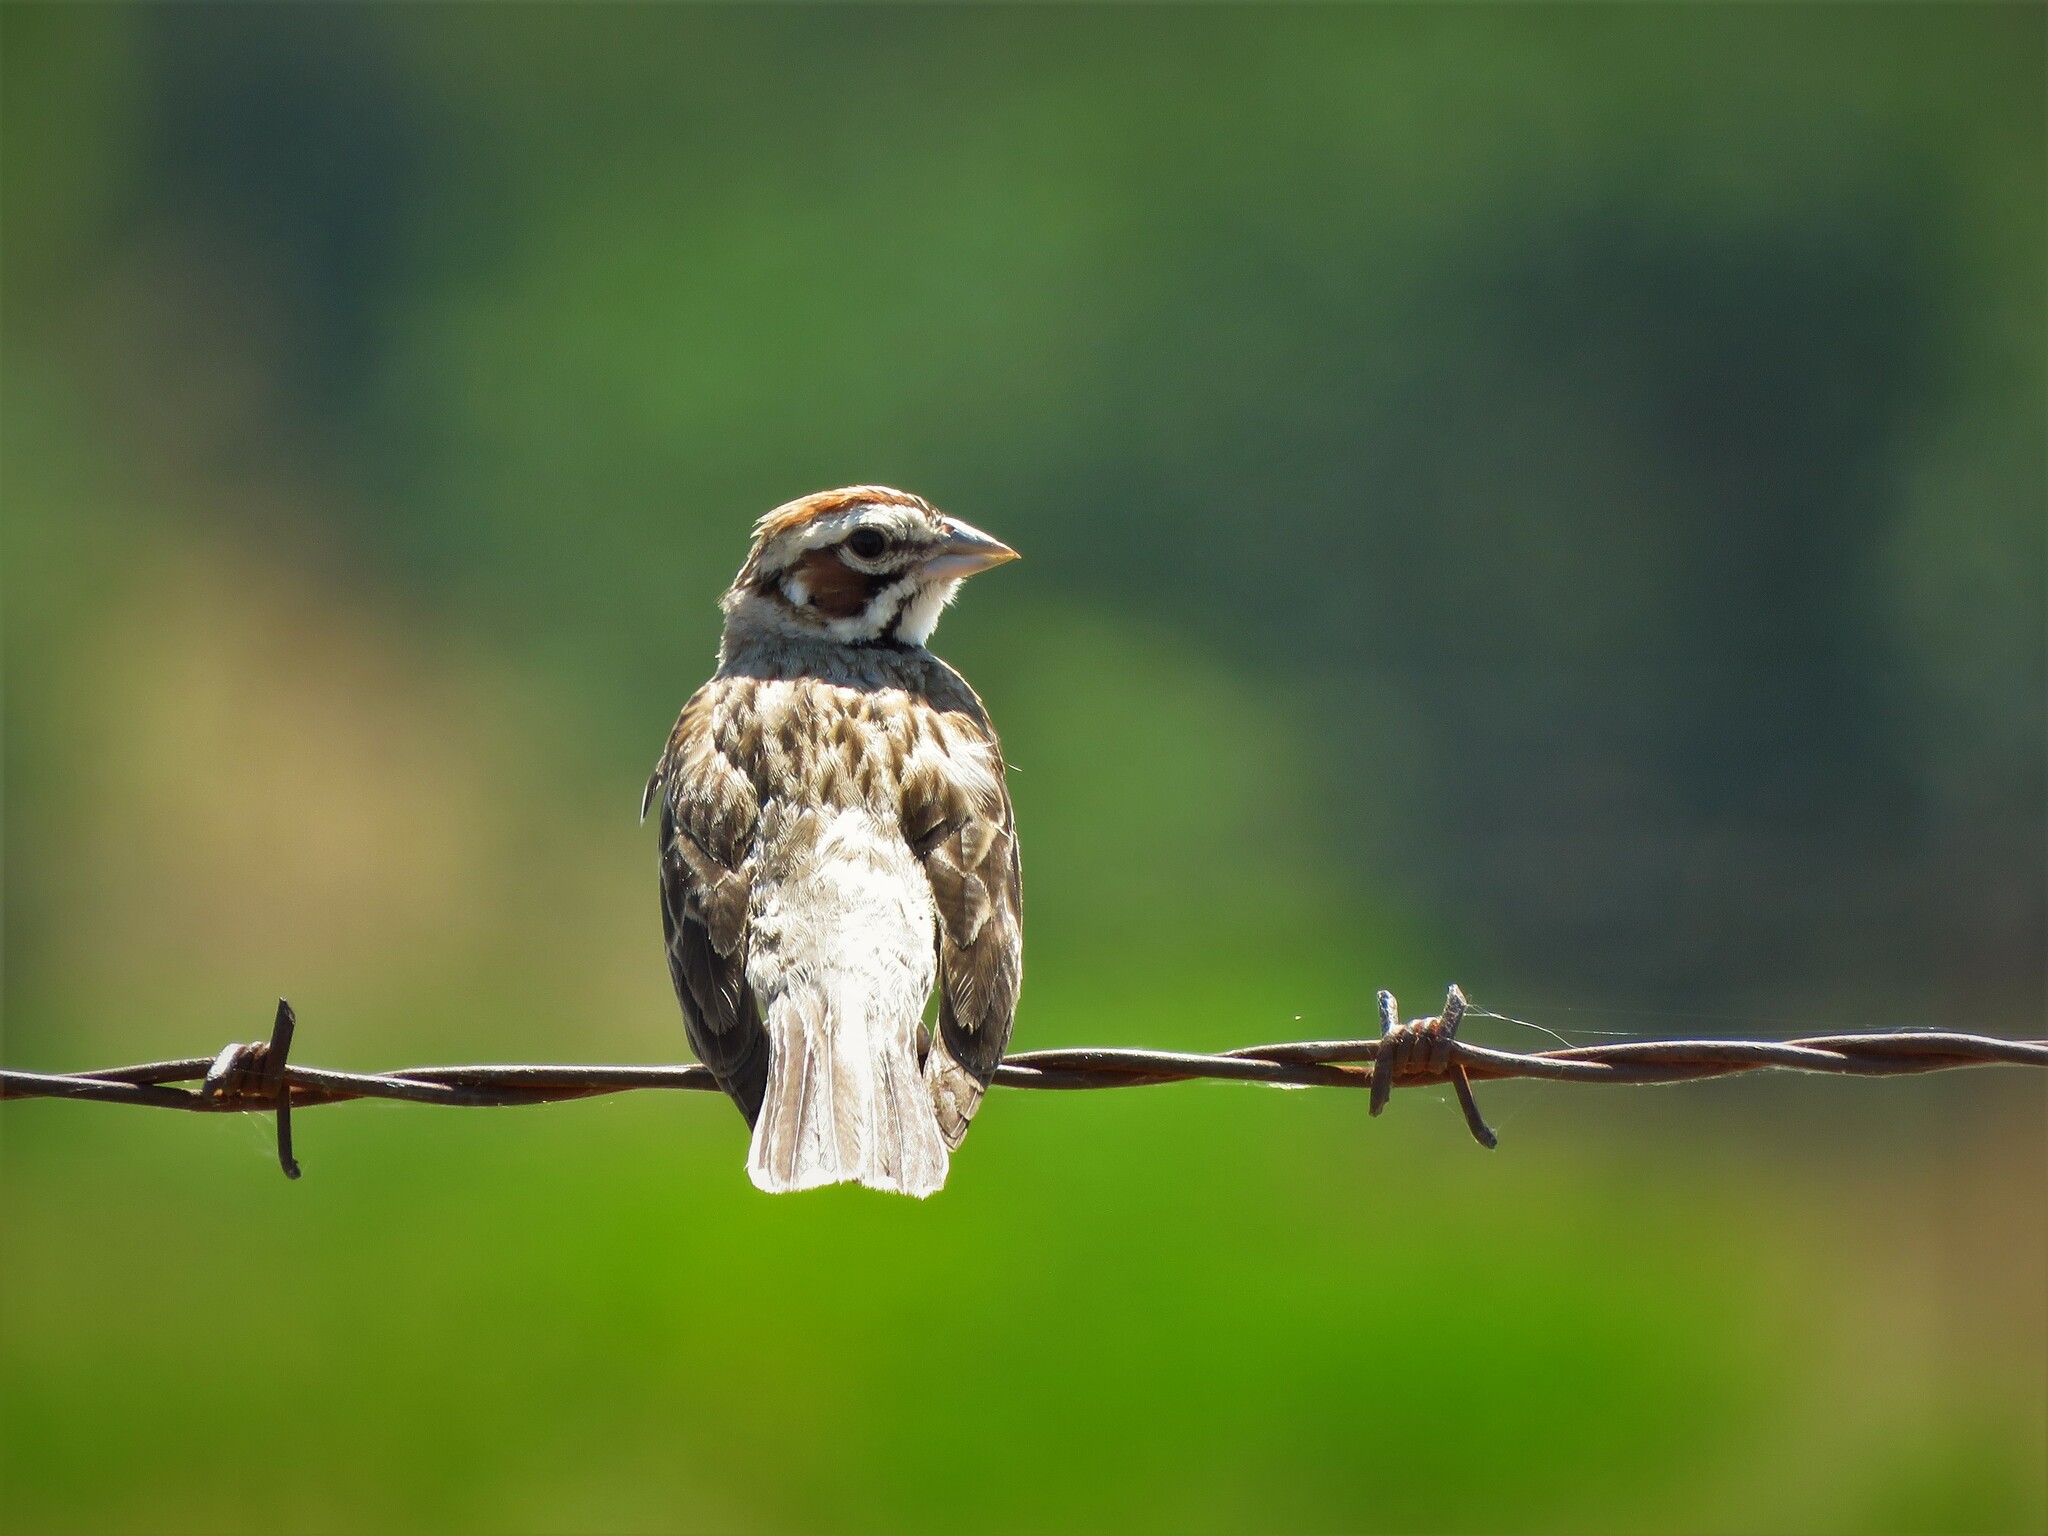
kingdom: Animalia
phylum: Chordata
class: Aves
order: Passeriformes
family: Passerellidae
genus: Chondestes
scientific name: Chondestes grammacus
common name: Lark sparrow
